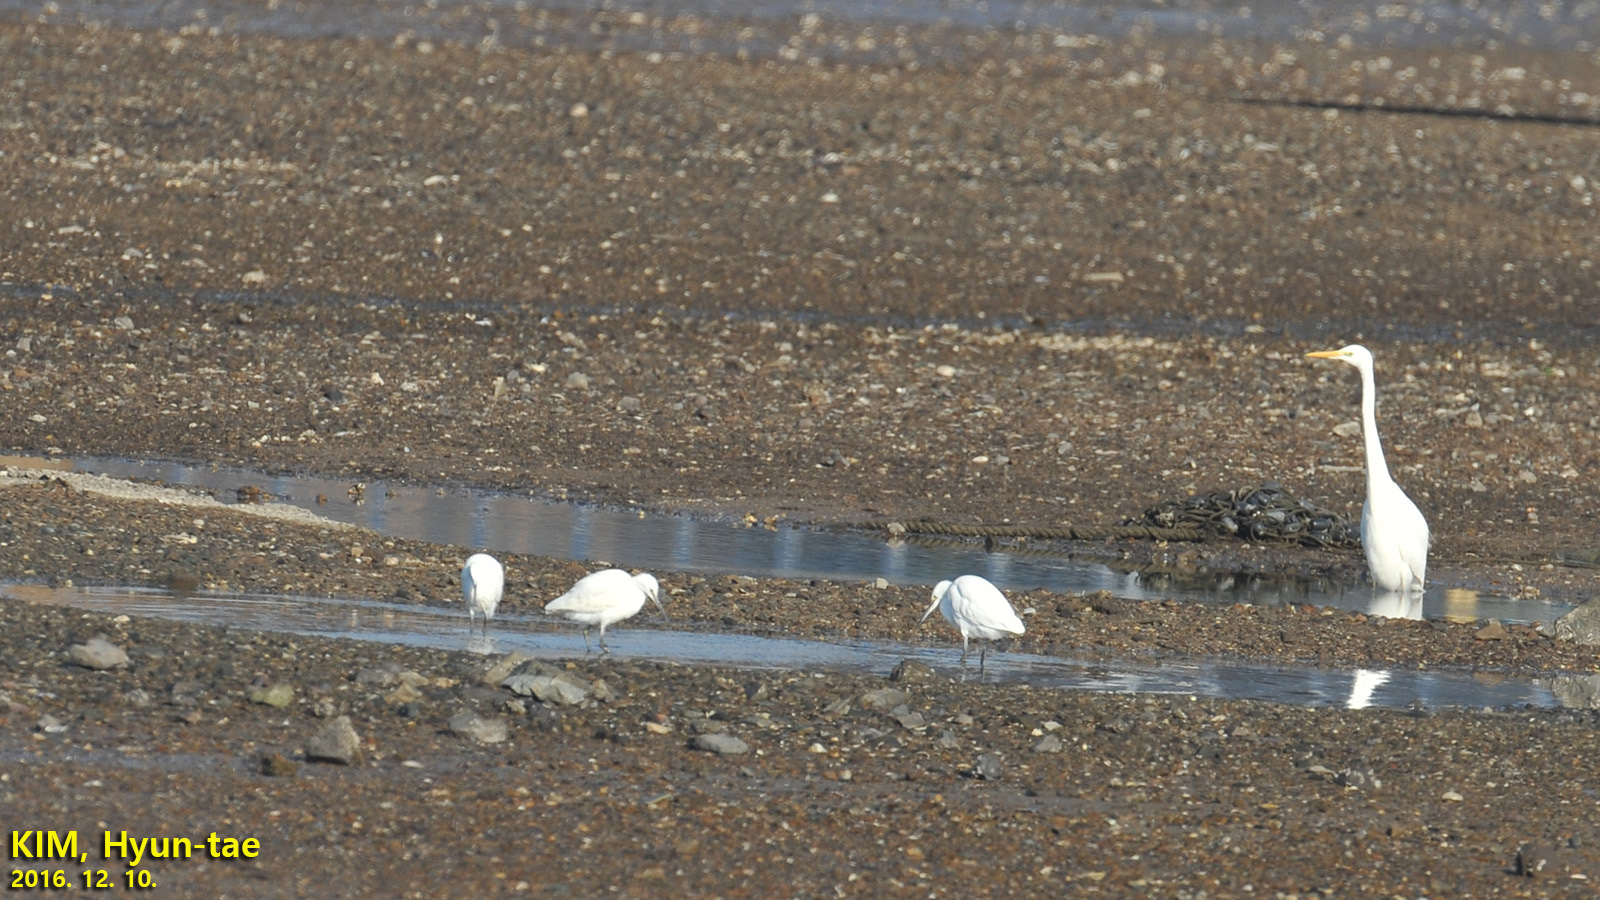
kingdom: Animalia
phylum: Chordata
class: Aves
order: Pelecaniformes
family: Ardeidae
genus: Egretta
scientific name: Egretta garzetta
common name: Little egret
